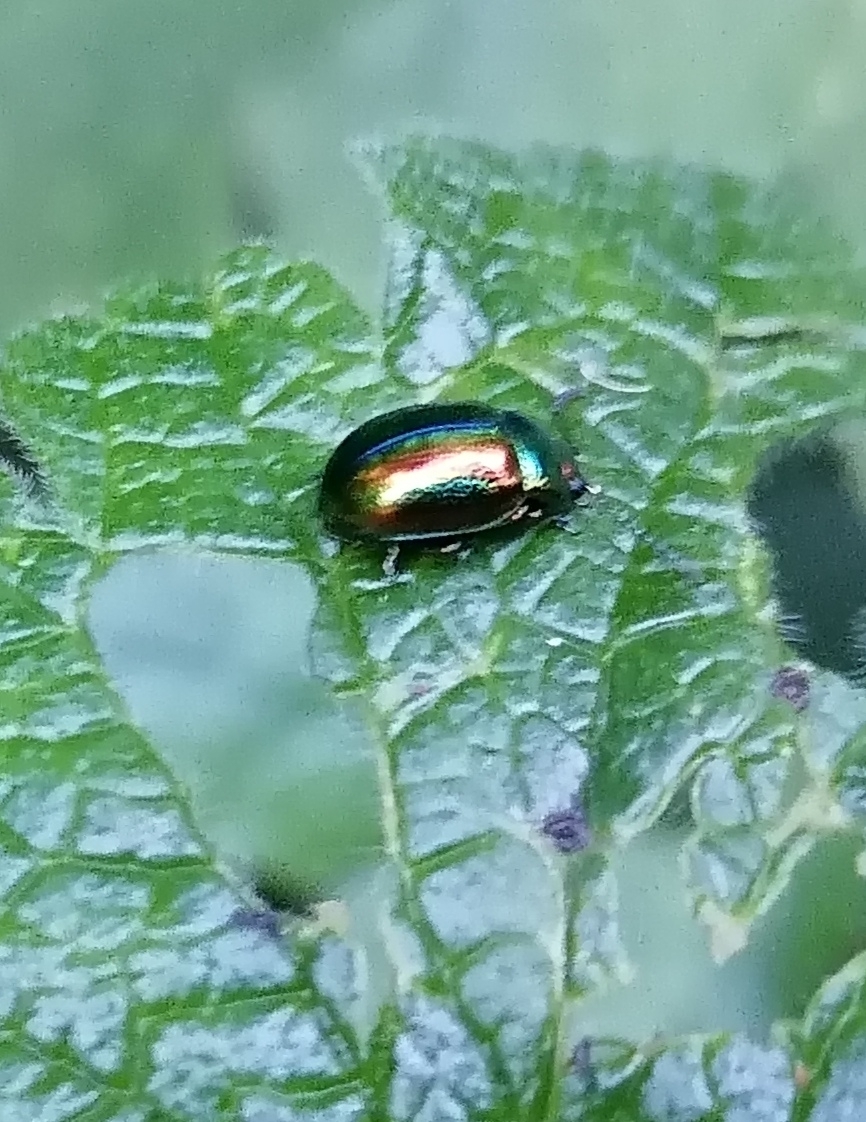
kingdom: Animalia
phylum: Arthropoda
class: Insecta
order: Coleoptera
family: Chrysomelidae
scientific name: Chrysomelidae
